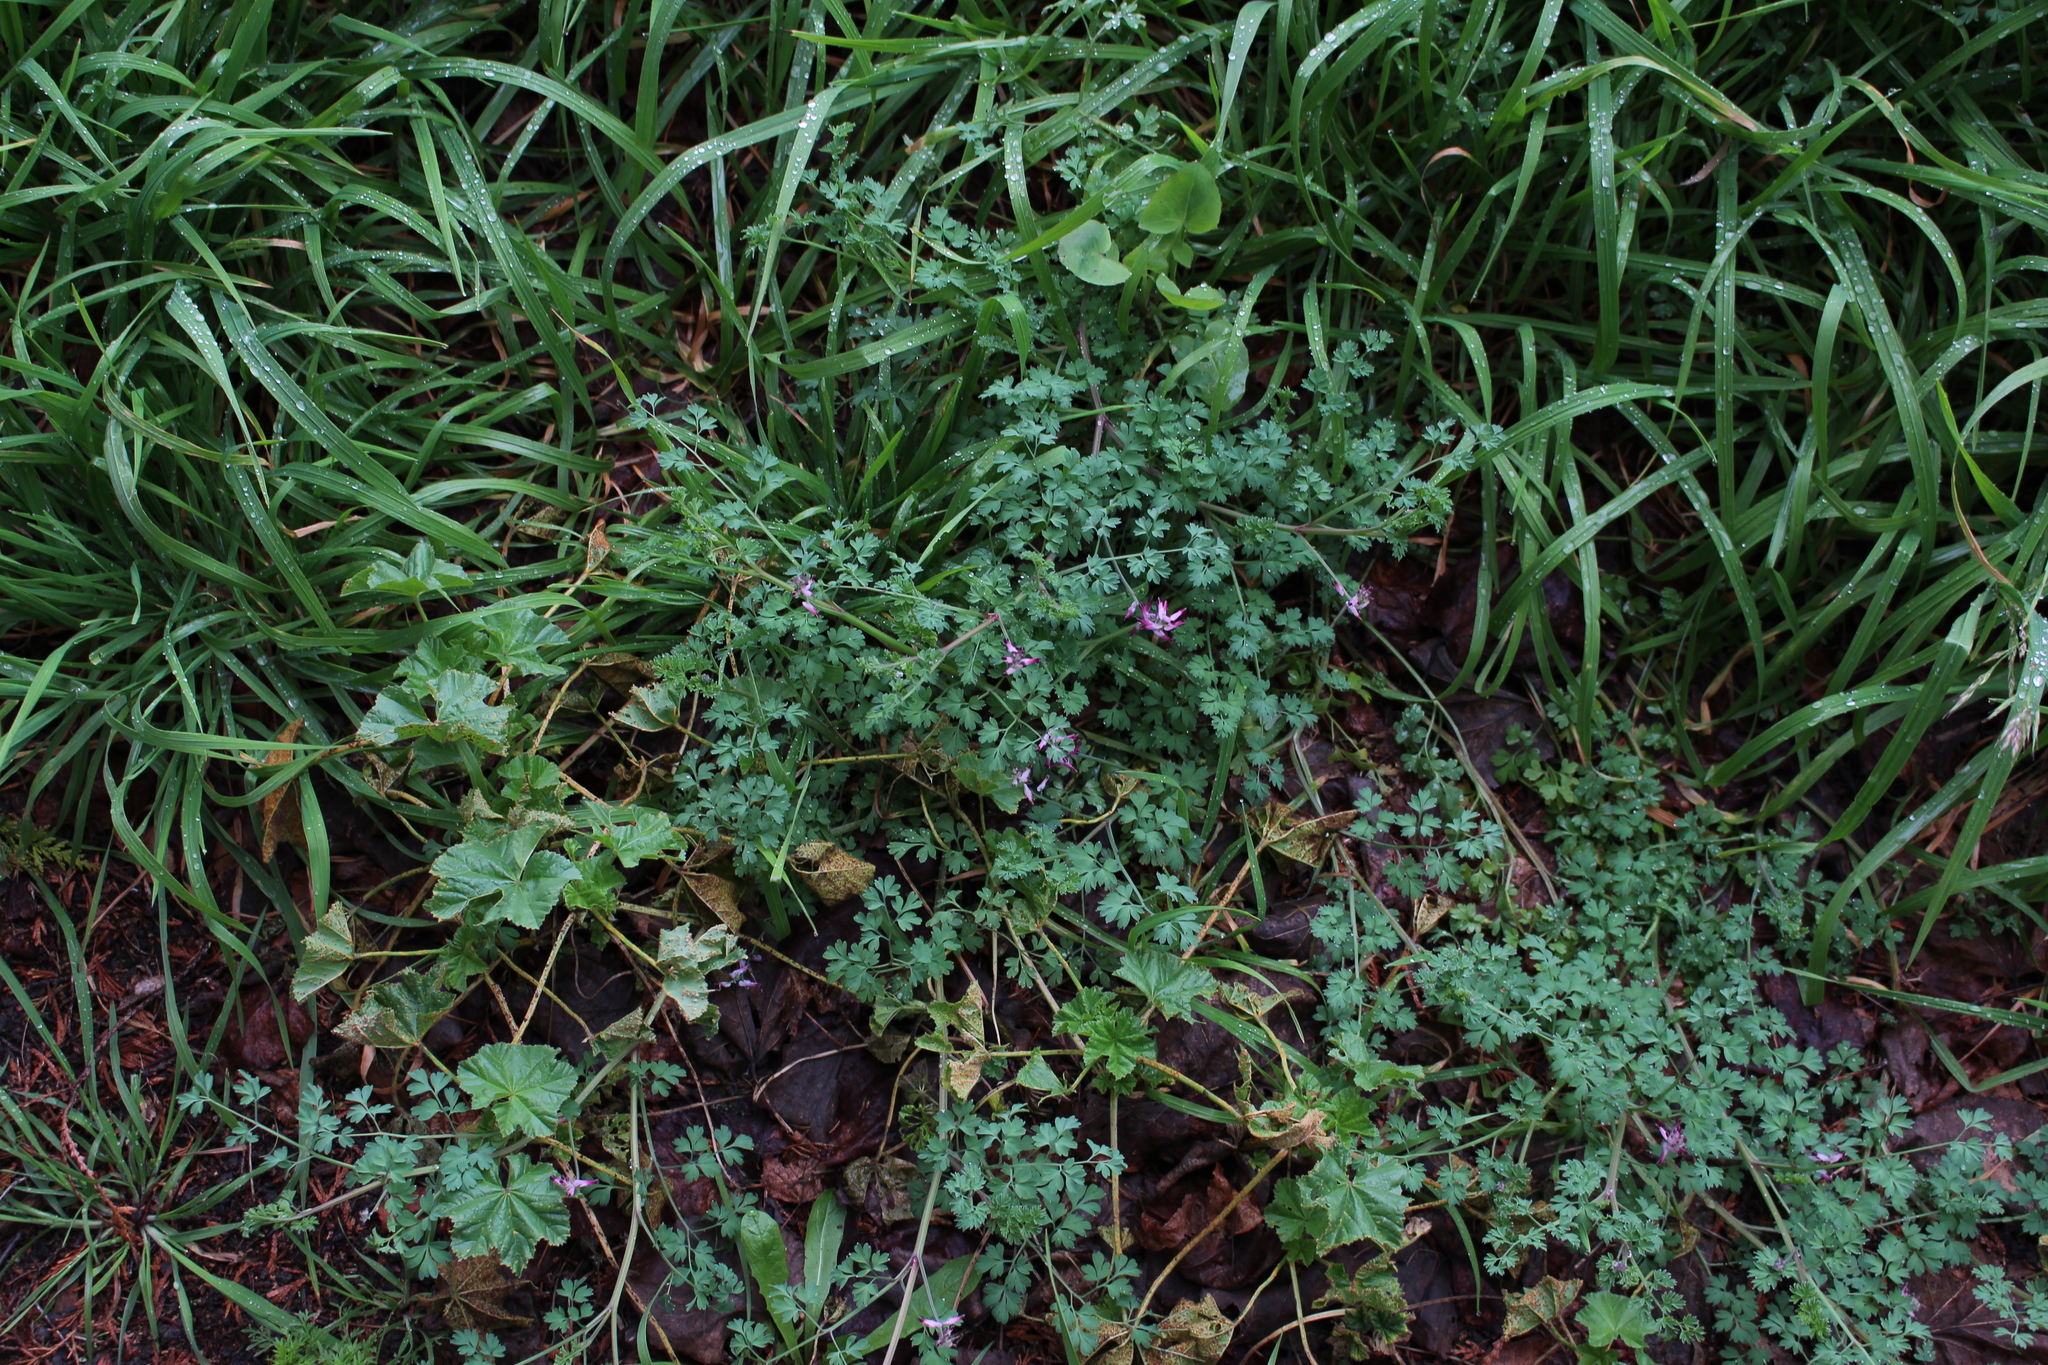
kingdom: Plantae
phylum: Tracheophyta
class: Magnoliopsida
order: Ranunculales
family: Papaveraceae
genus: Fumaria
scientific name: Fumaria muralis
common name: Common ramping-fumitory
